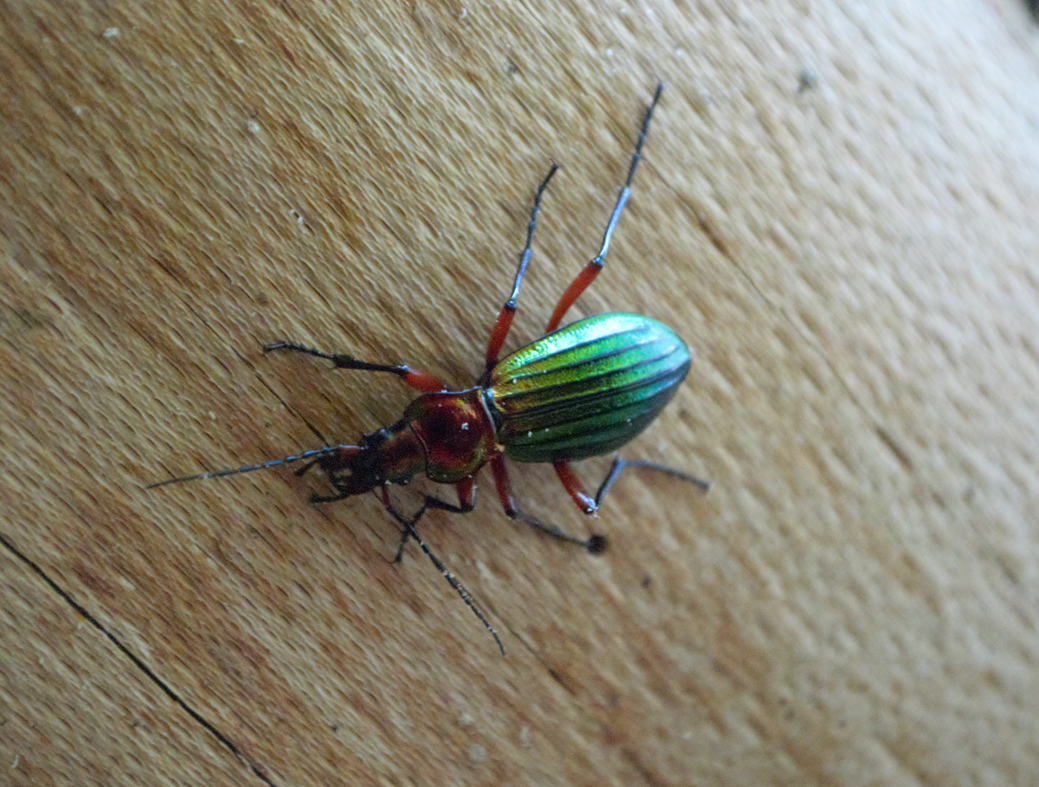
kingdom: Animalia
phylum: Arthropoda
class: Insecta
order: Coleoptera
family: Carabidae
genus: Carabus
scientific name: Carabus auronitens
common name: Carabus auronitens
